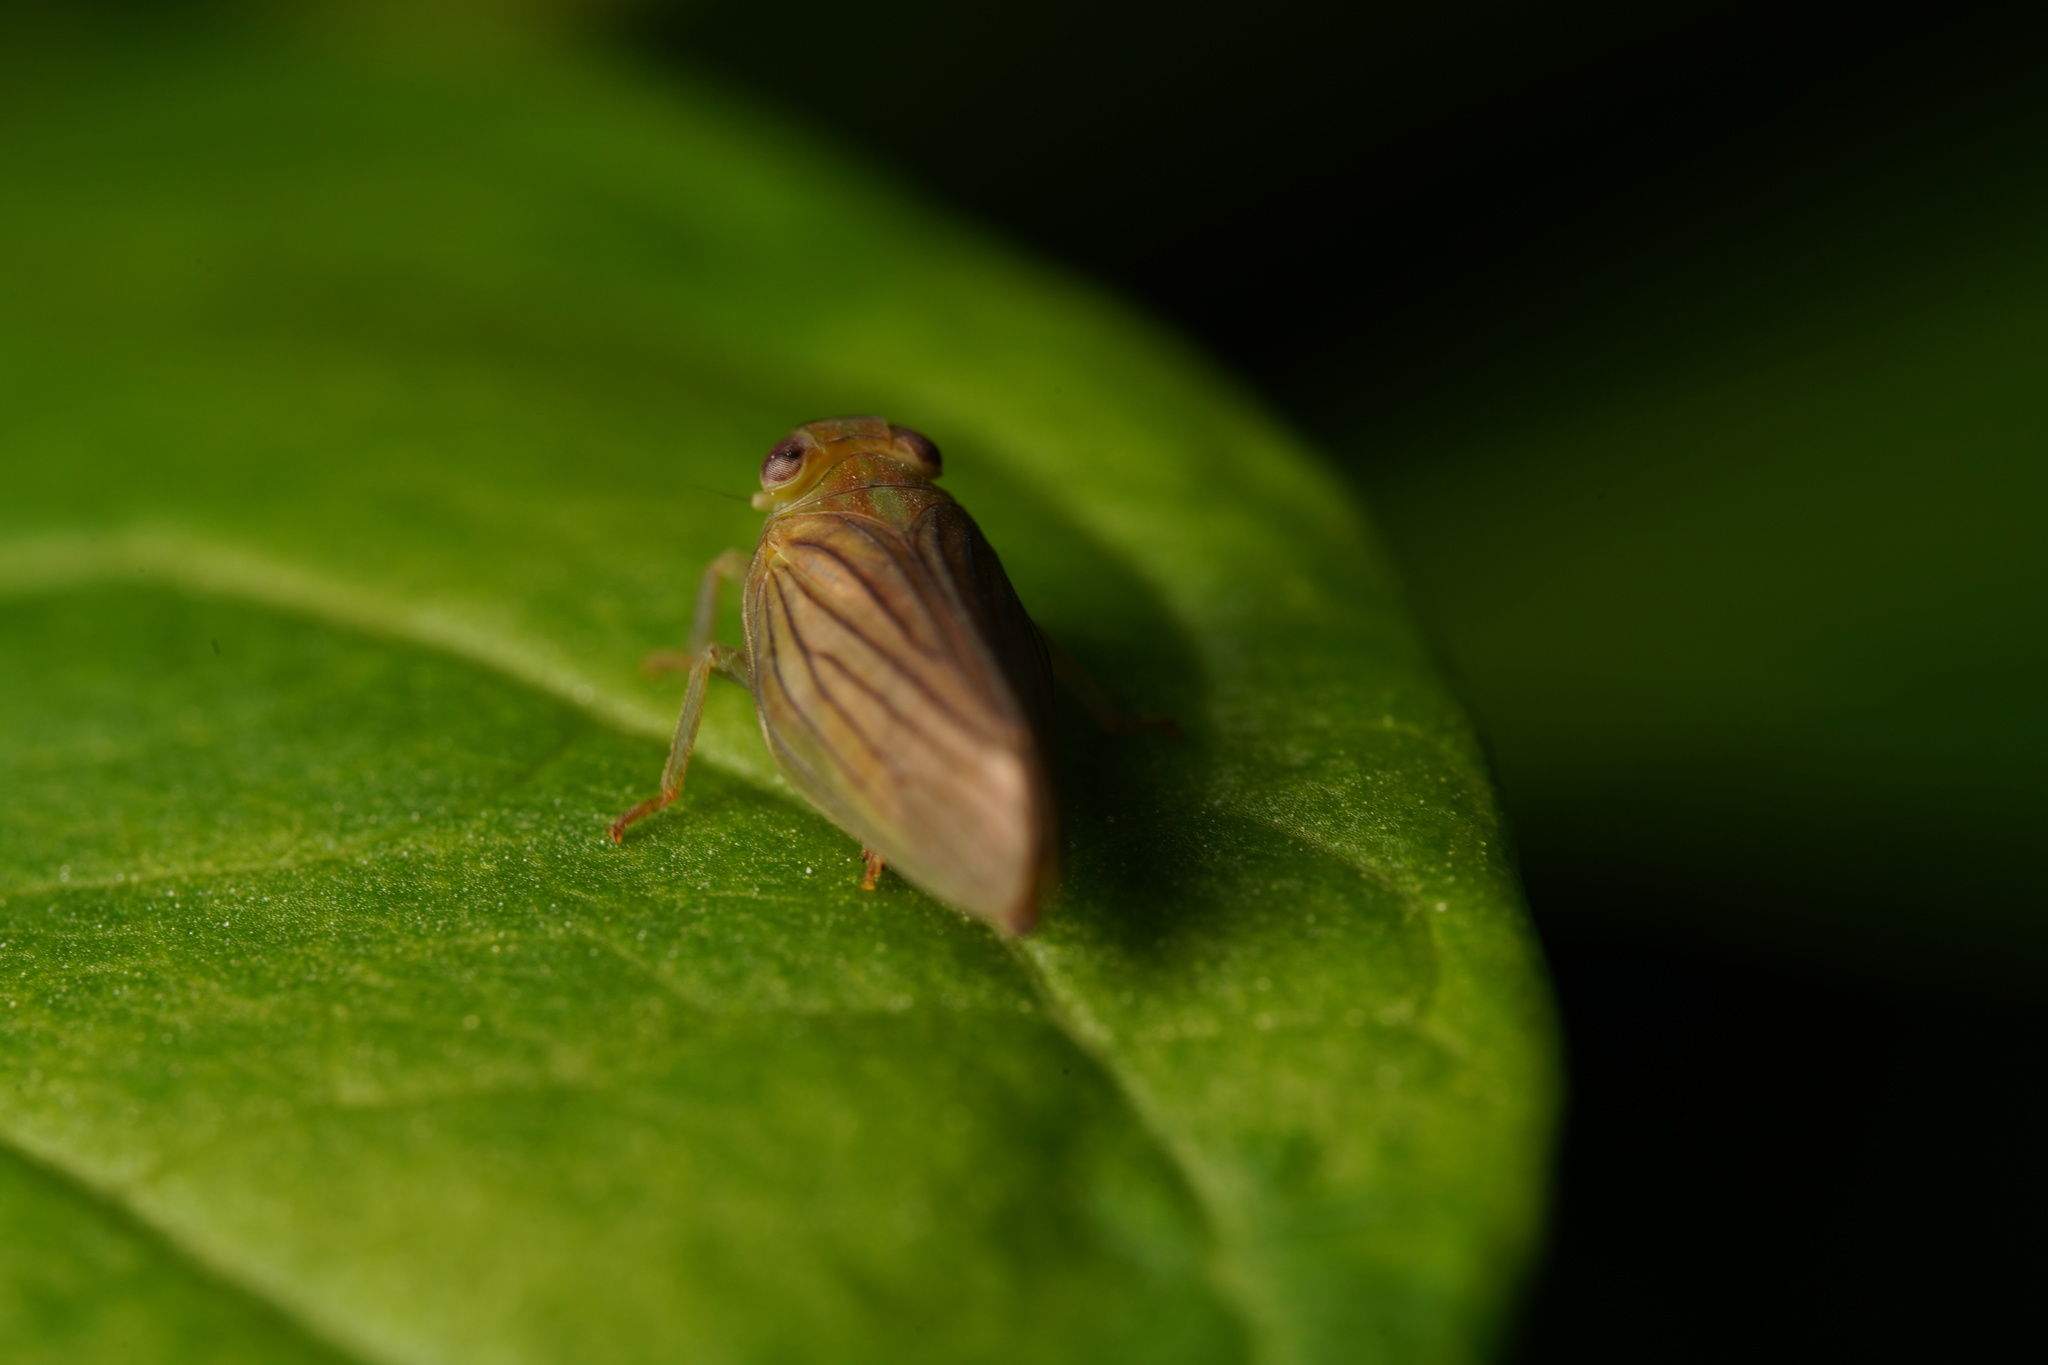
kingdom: Animalia
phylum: Arthropoda
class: Insecta
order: Hemiptera
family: Issidae
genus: Aplos
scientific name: Aplos simplex
